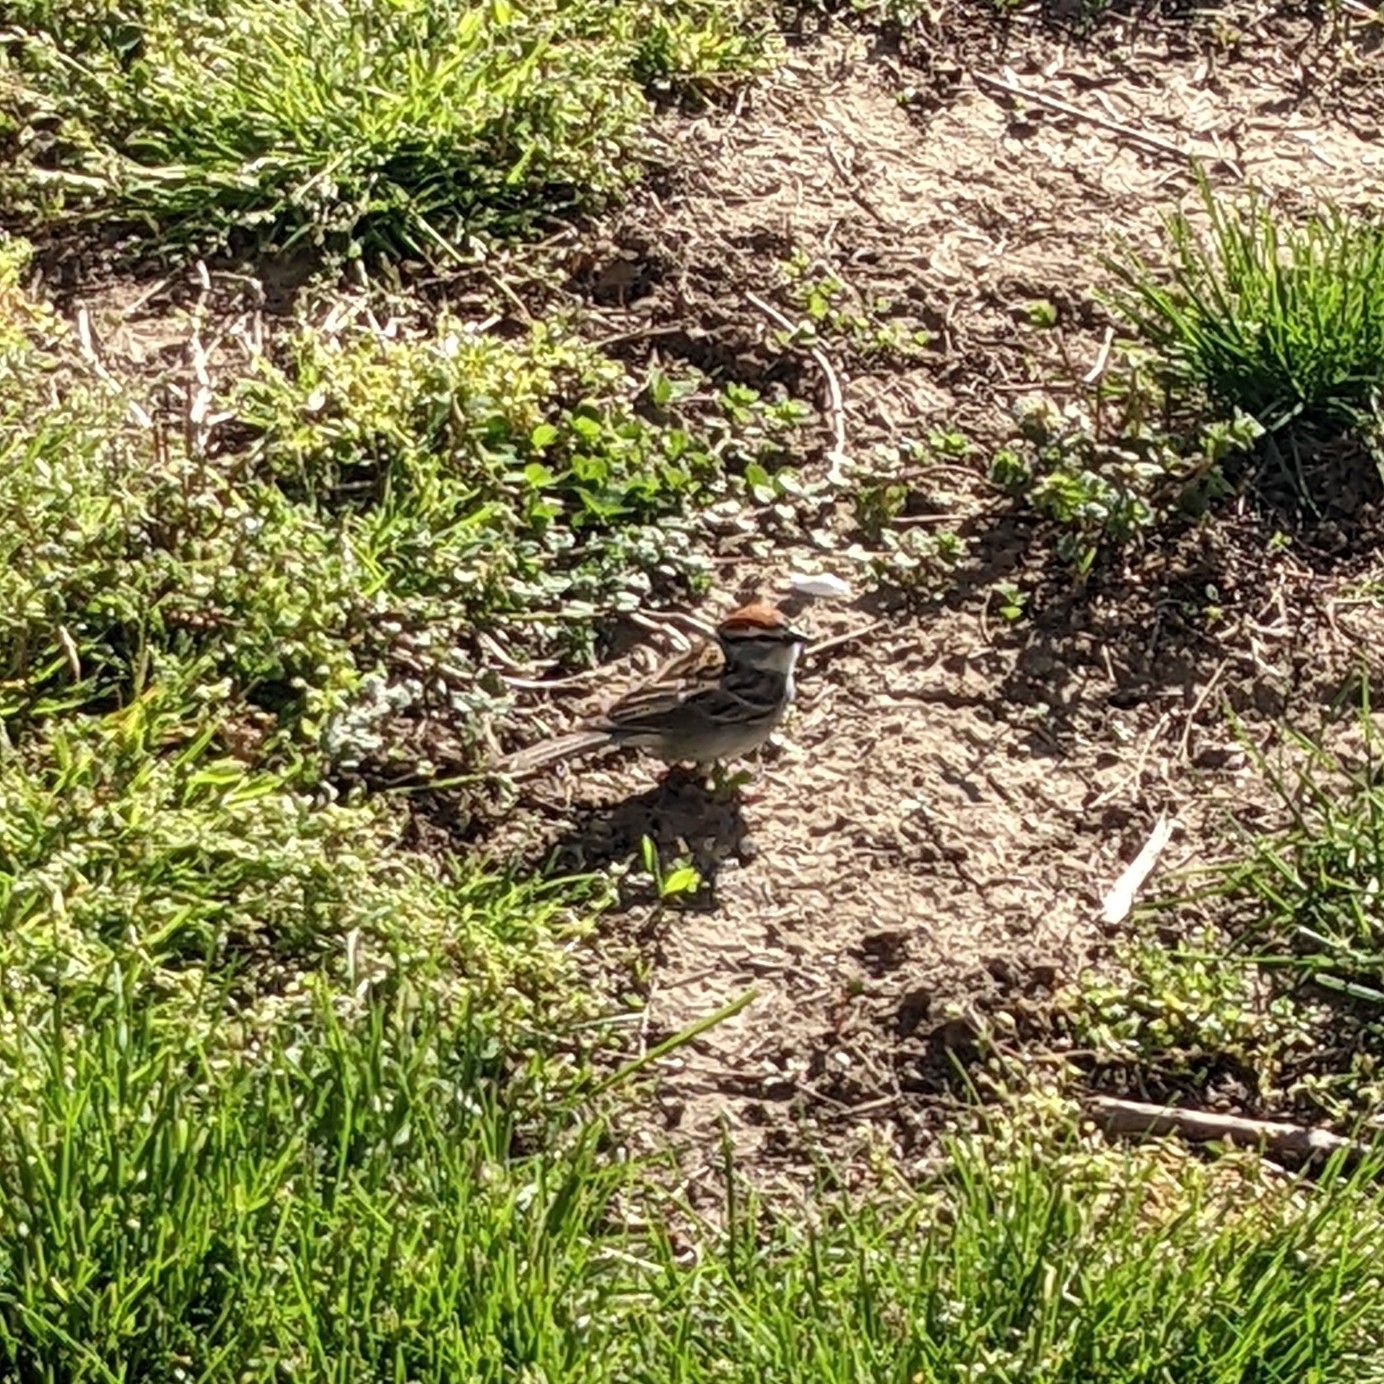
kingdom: Animalia
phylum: Chordata
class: Aves
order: Passeriformes
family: Passerellidae
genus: Spizella
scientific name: Spizella passerina
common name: Chipping sparrow
